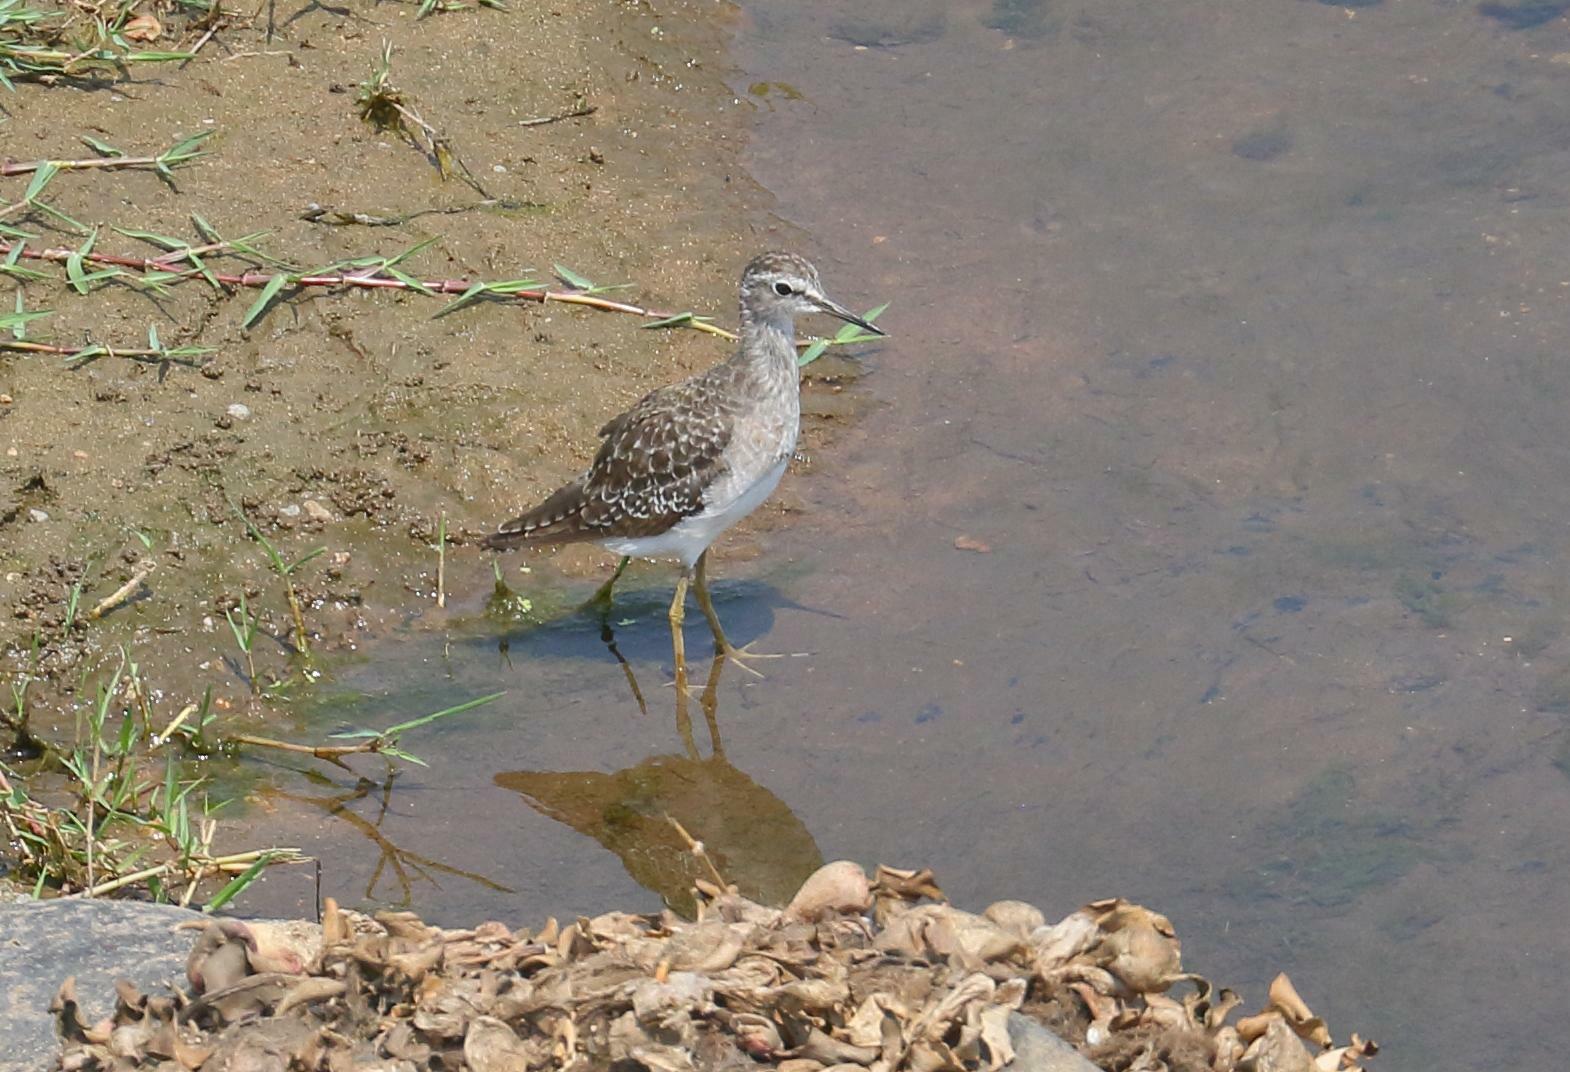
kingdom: Animalia
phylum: Chordata
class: Aves
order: Charadriiformes
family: Scolopacidae
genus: Tringa
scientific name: Tringa glareola
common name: Wood sandpiper
